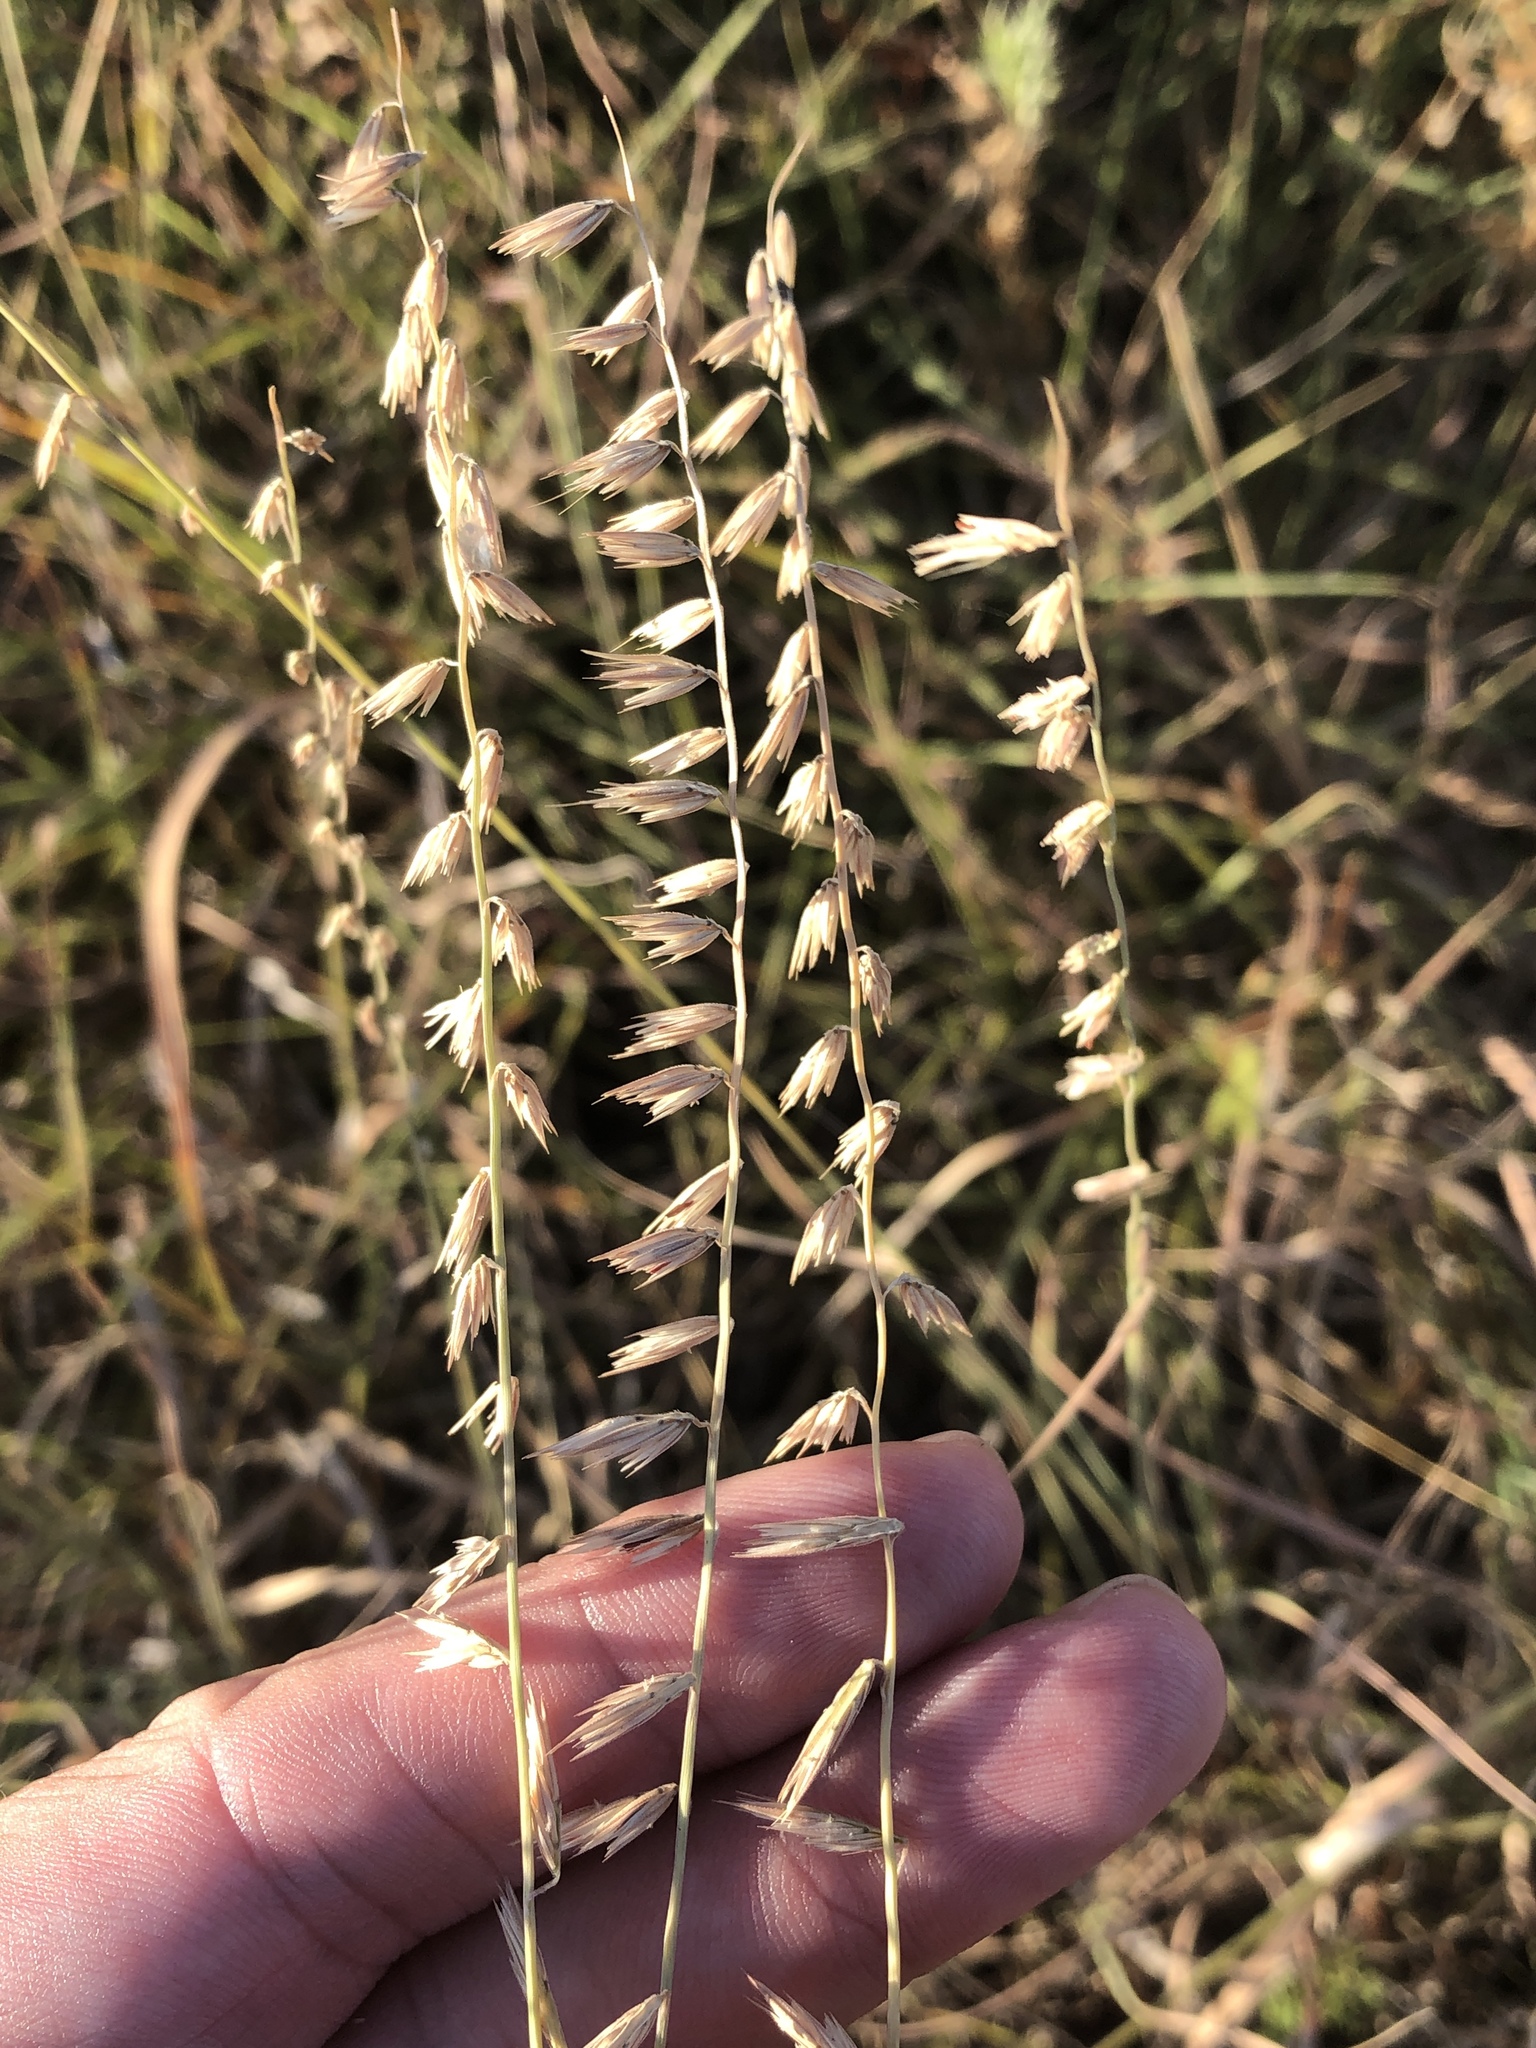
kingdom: Plantae
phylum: Tracheophyta
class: Liliopsida
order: Poales
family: Poaceae
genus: Bouteloua
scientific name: Bouteloua curtipendula
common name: Side-oats grama
